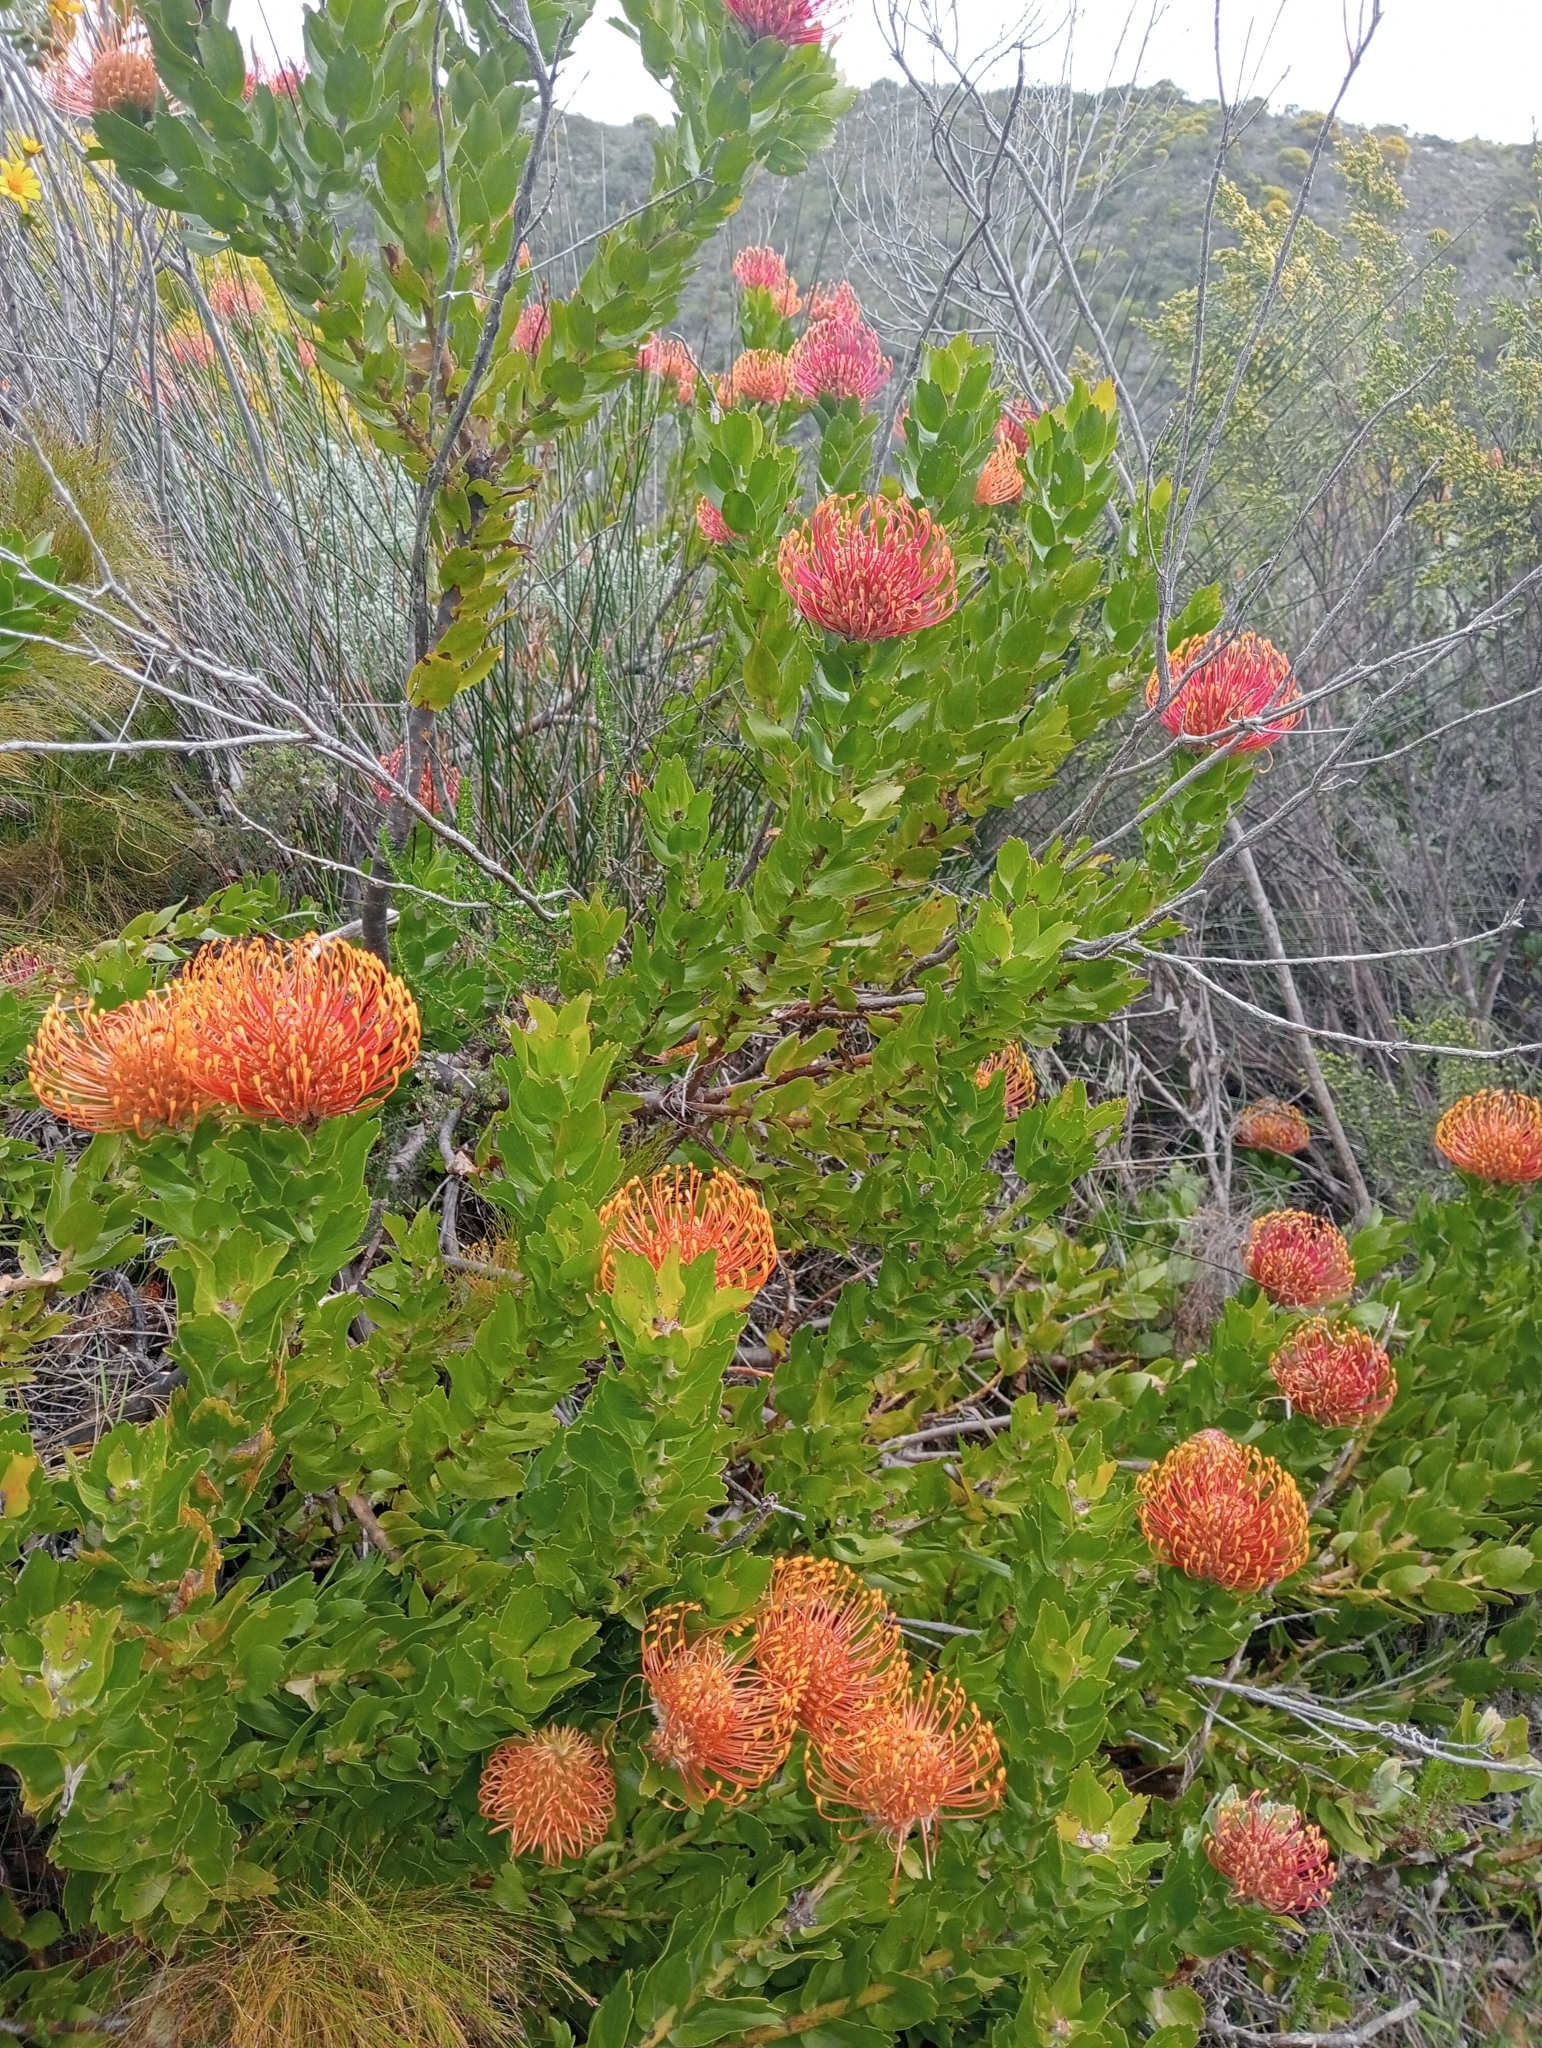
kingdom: Plantae
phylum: Tracheophyta
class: Magnoliopsida
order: Proteales
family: Proteaceae
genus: Leucospermum
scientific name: Leucospermum patersonii
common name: False tree pincushion
